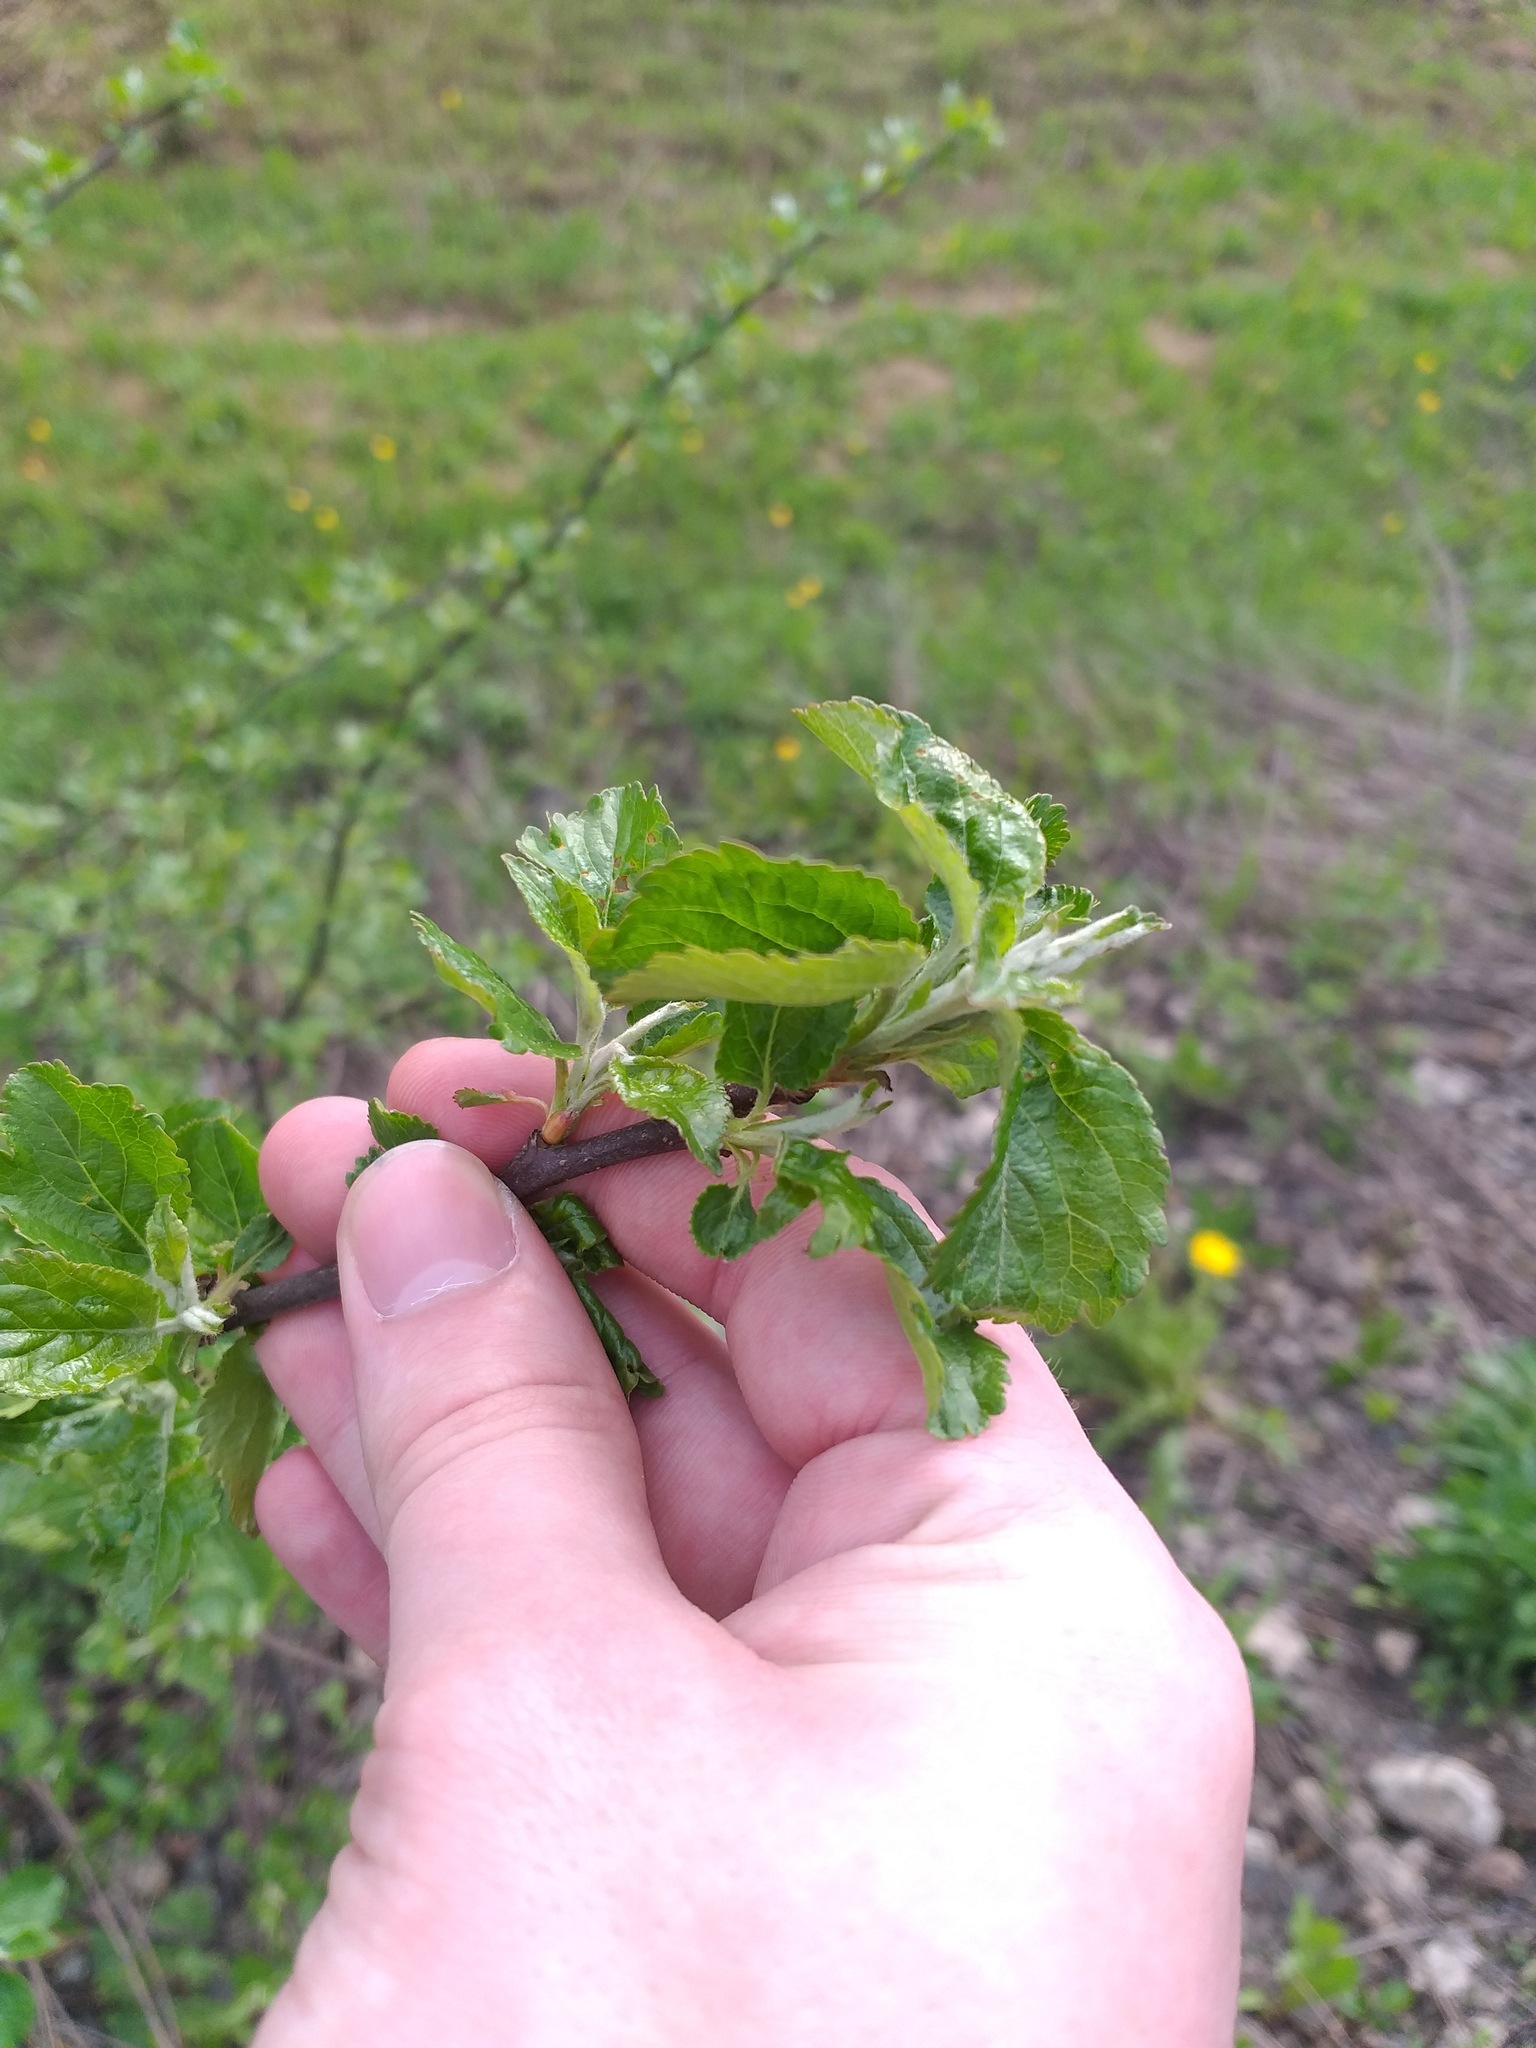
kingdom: Plantae
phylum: Tracheophyta
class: Magnoliopsida
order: Rosales
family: Rosaceae
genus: Malus
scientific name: Malus domestica
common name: Apple
